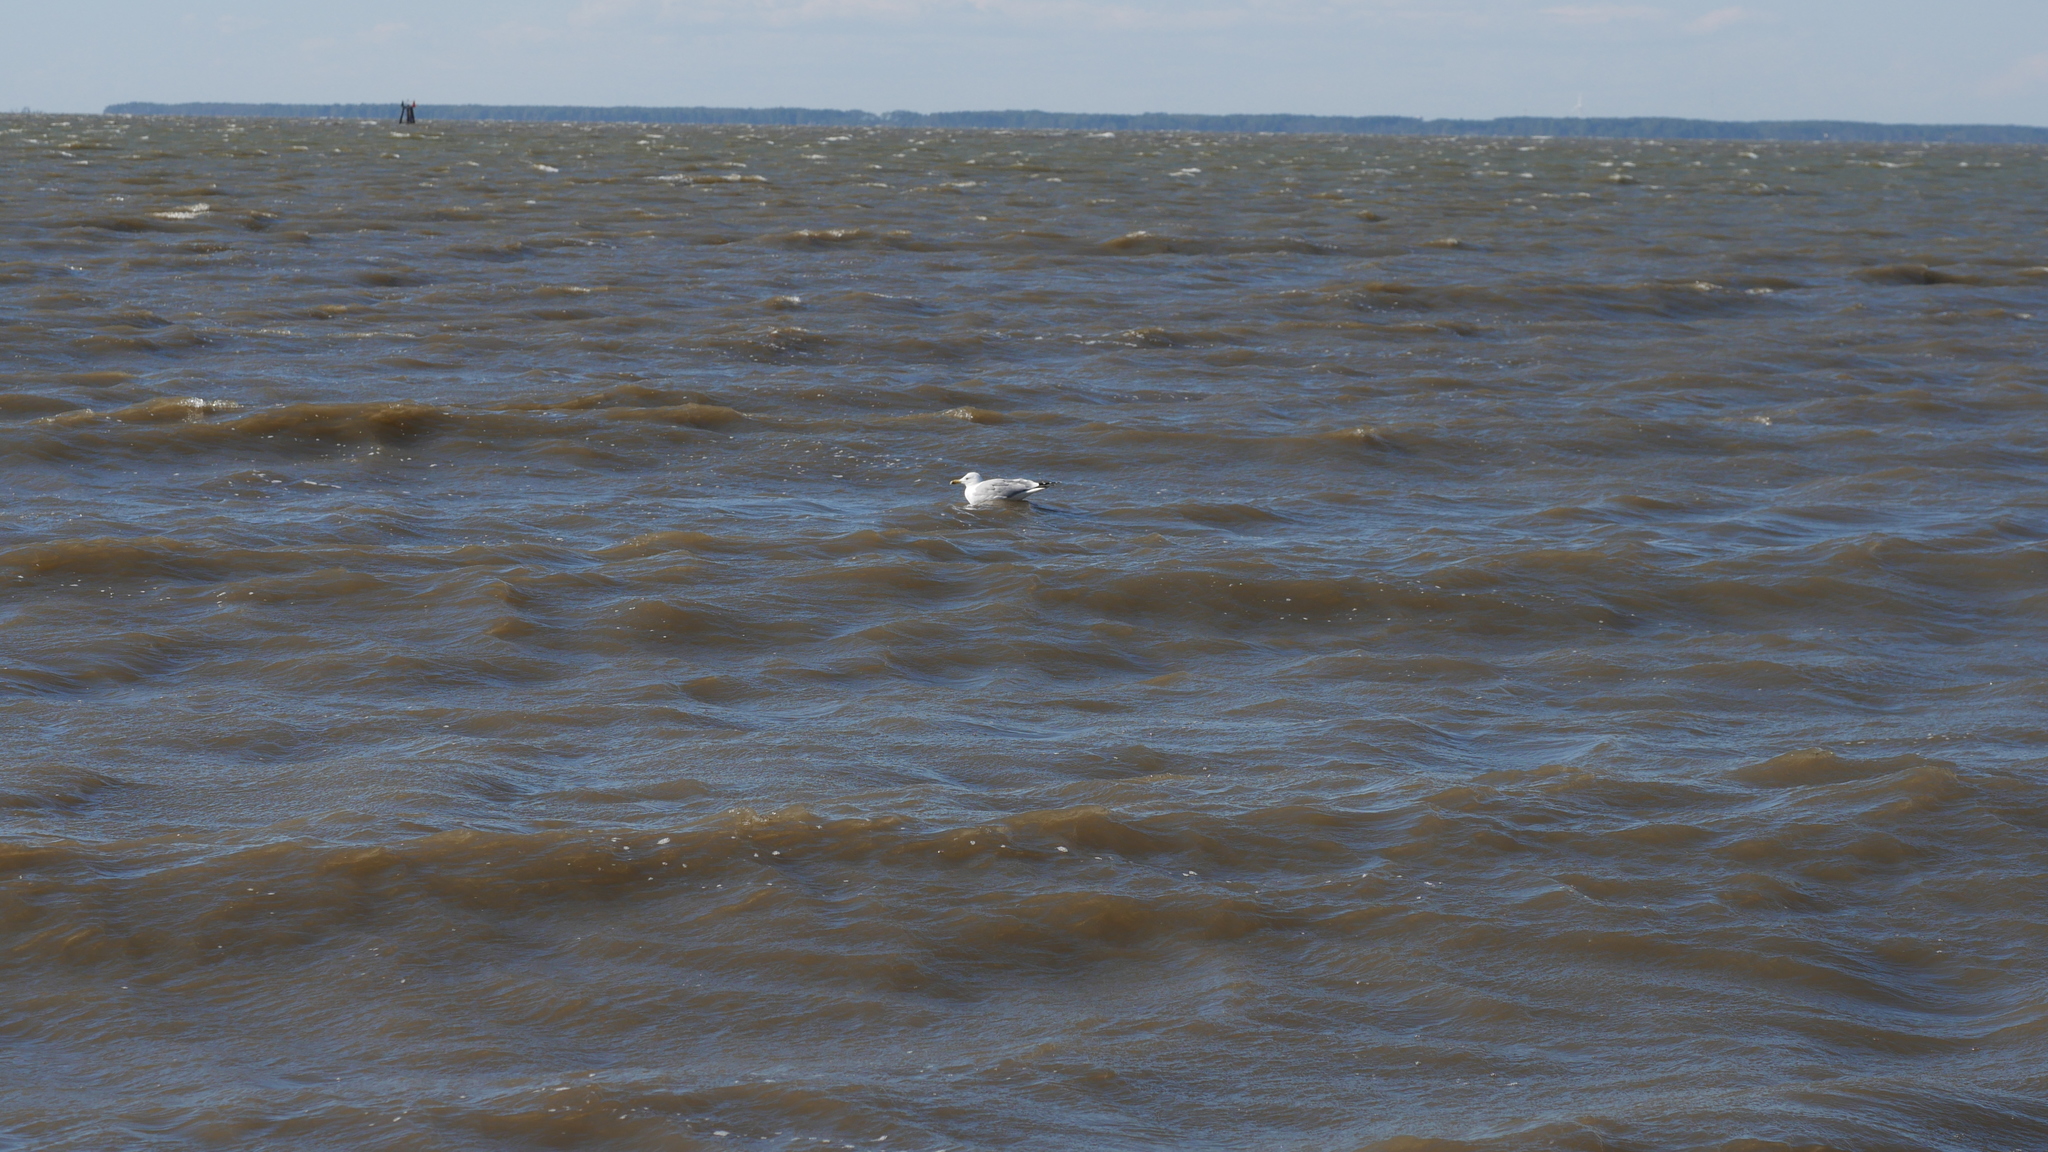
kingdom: Animalia
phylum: Chordata
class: Aves
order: Charadriiformes
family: Laridae
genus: Larus
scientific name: Larus delawarensis
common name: Ring-billed gull
